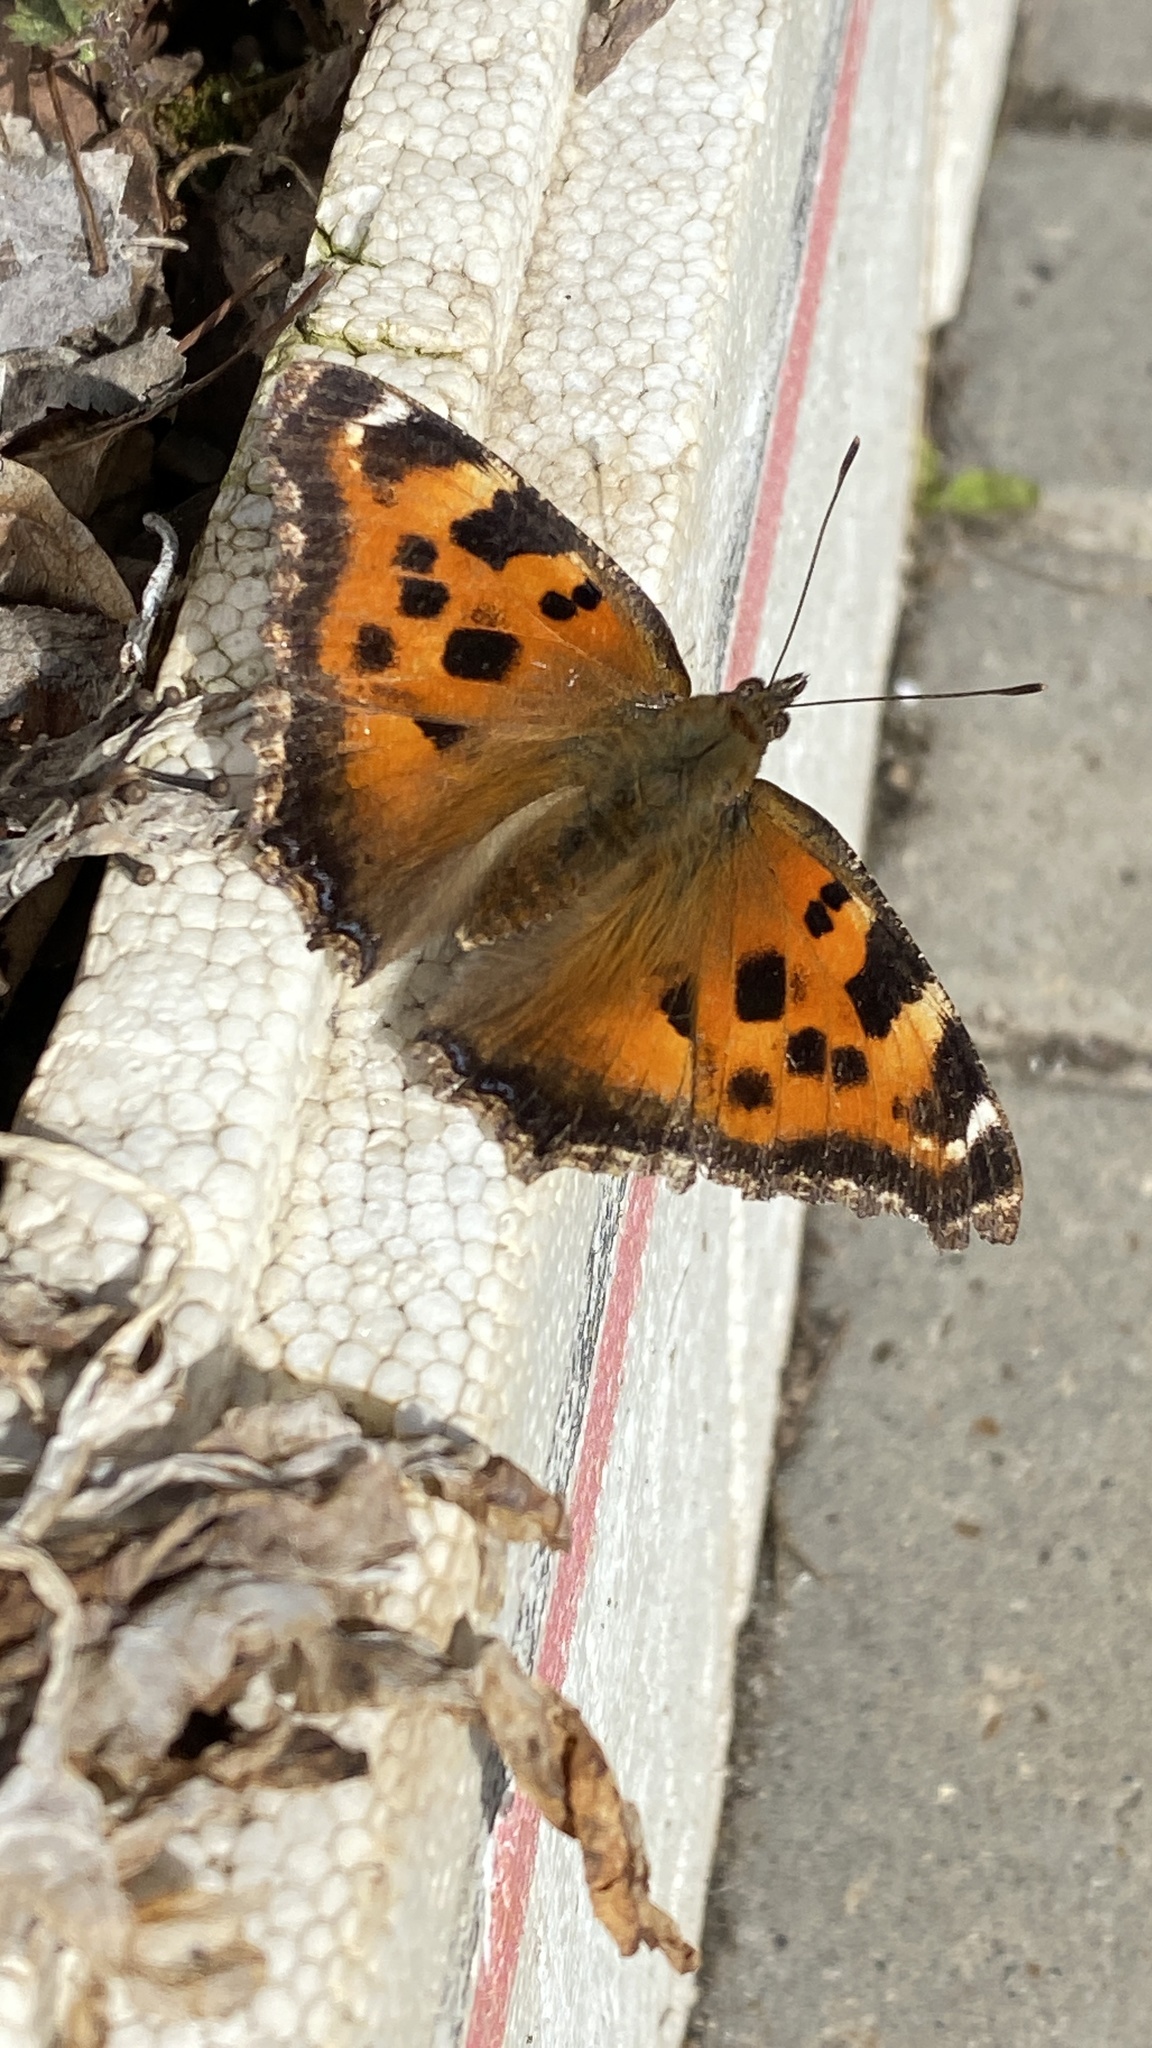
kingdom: Animalia
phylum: Arthropoda
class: Insecta
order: Lepidoptera
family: Nymphalidae
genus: Nymphalis
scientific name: Nymphalis xanthomelas
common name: Scarce tortoiseshell
